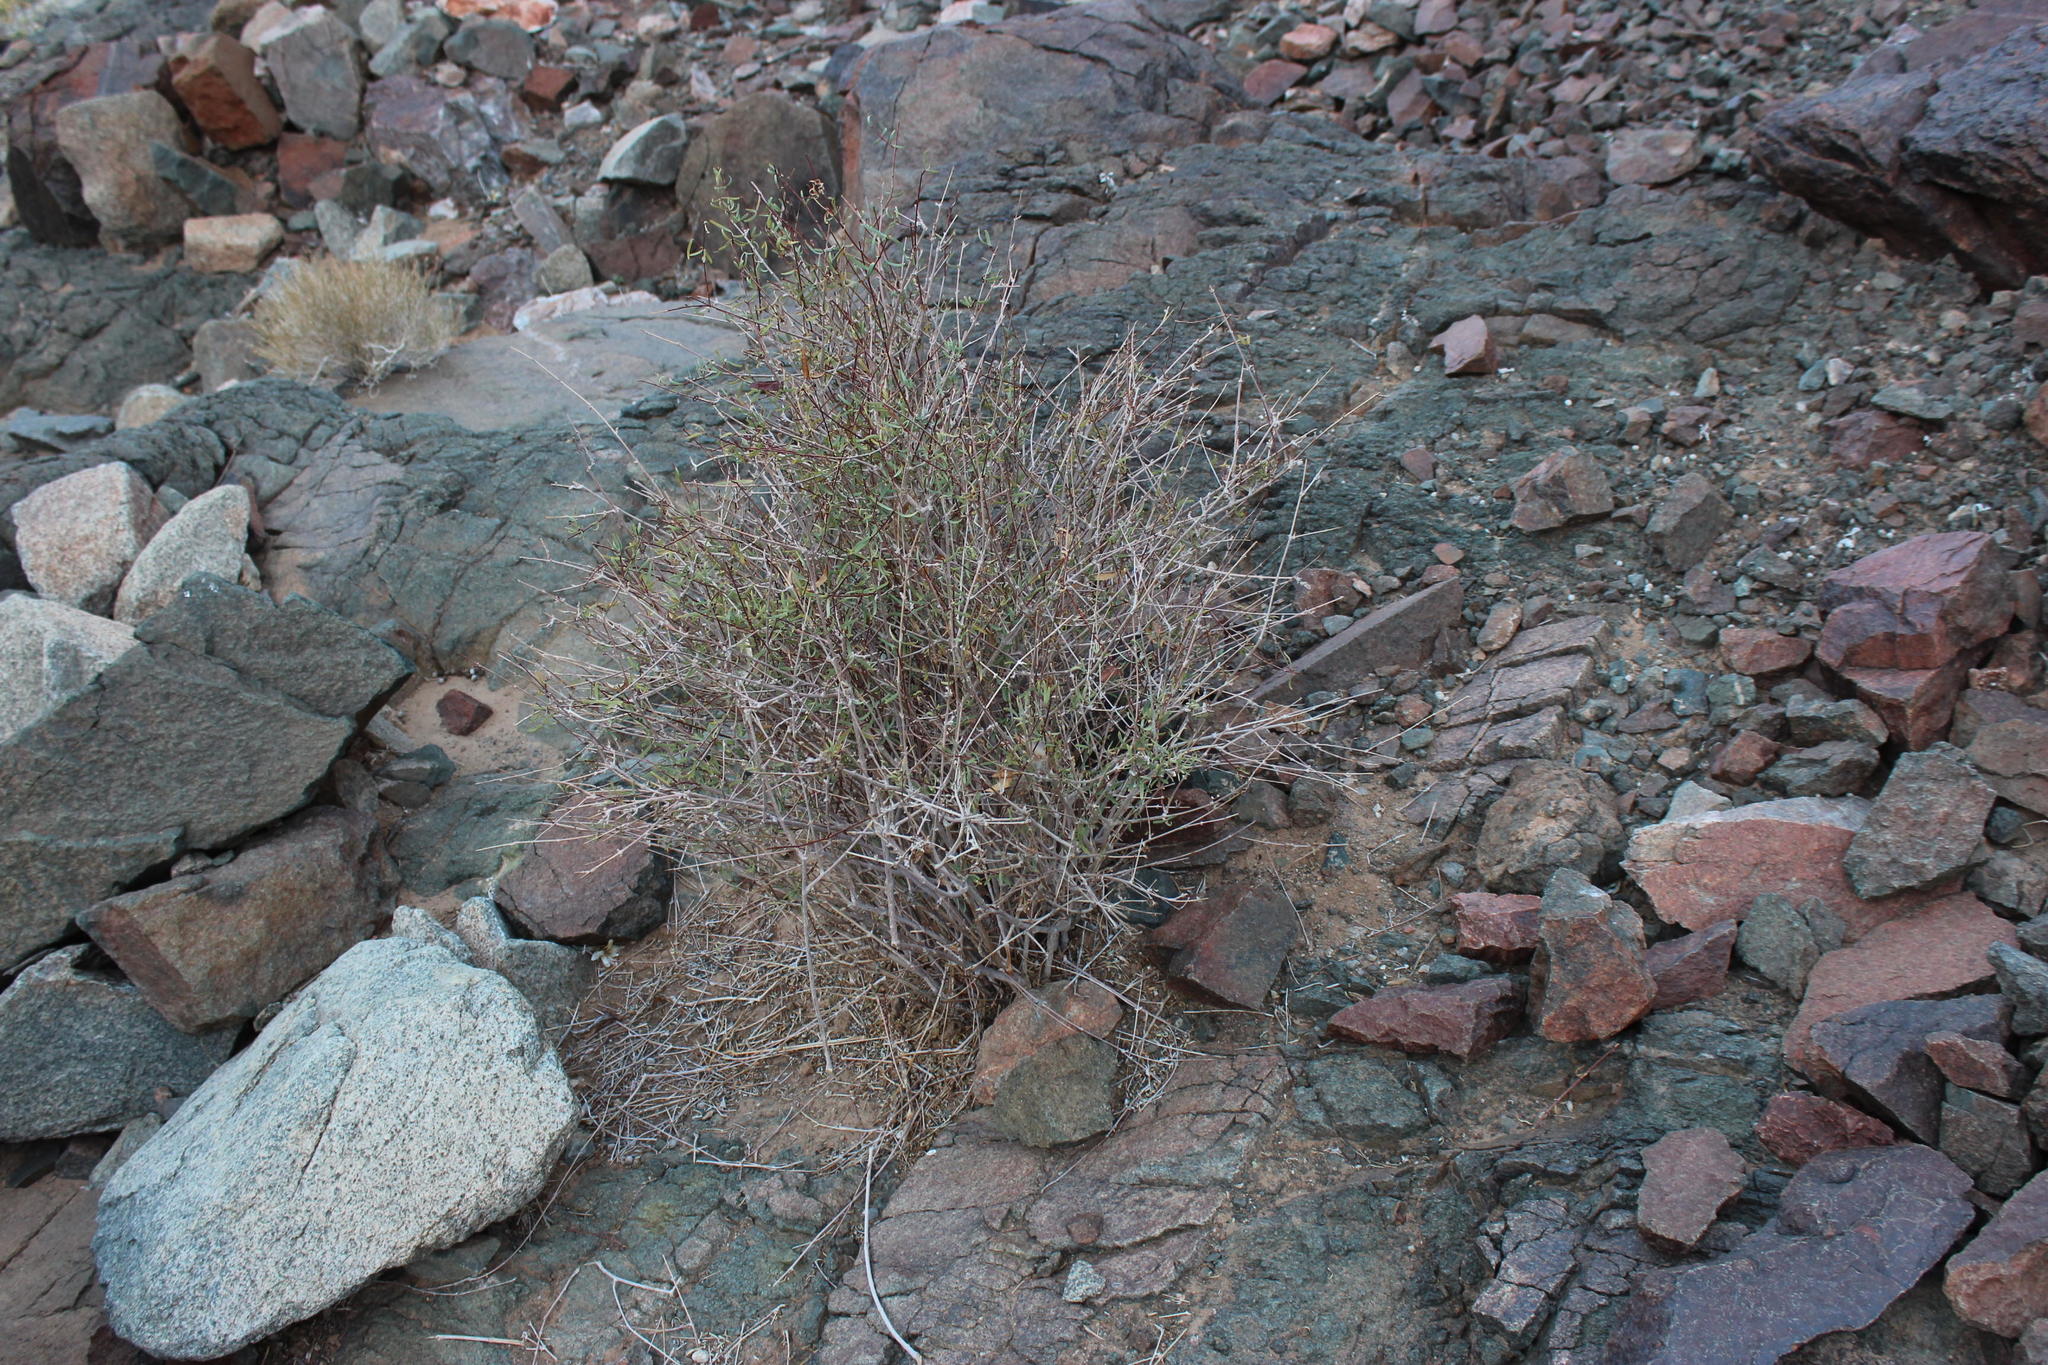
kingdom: Plantae
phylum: Tracheophyta
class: Magnoliopsida
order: Gentianales
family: Apocynaceae
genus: Cryptolepis
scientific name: Cryptolepis decidua
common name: Jackalplant
